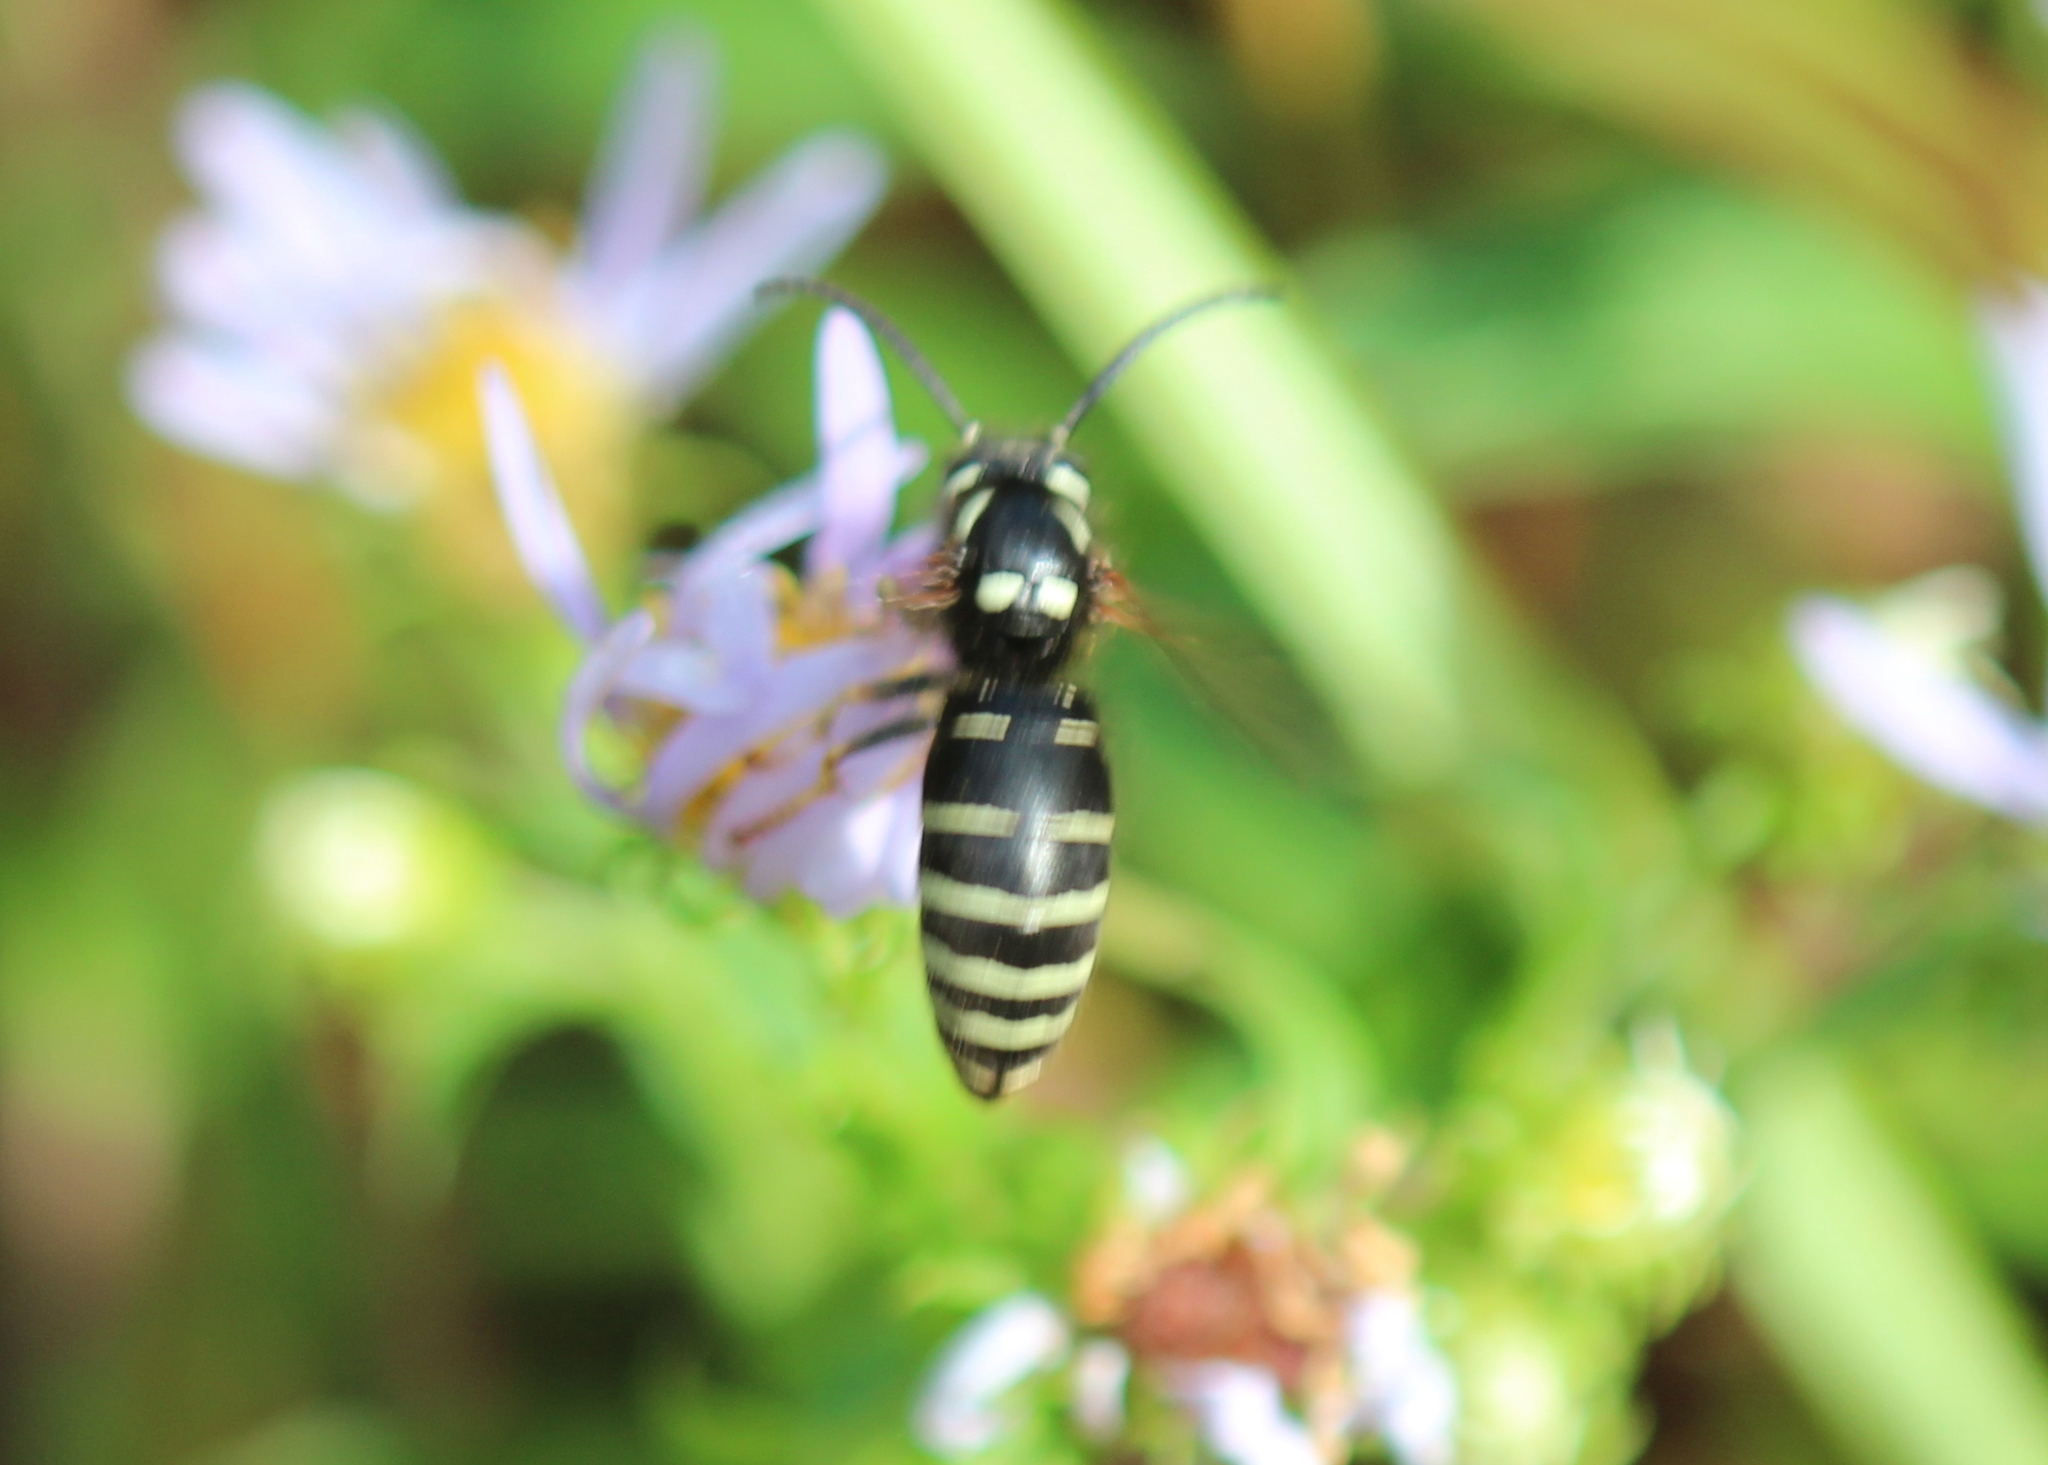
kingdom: Animalia
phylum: Arthropoda
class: Insecta
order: Hymenoptera
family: Vespidae
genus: Vespula
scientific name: Vespula consobrina
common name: Blackjacket
